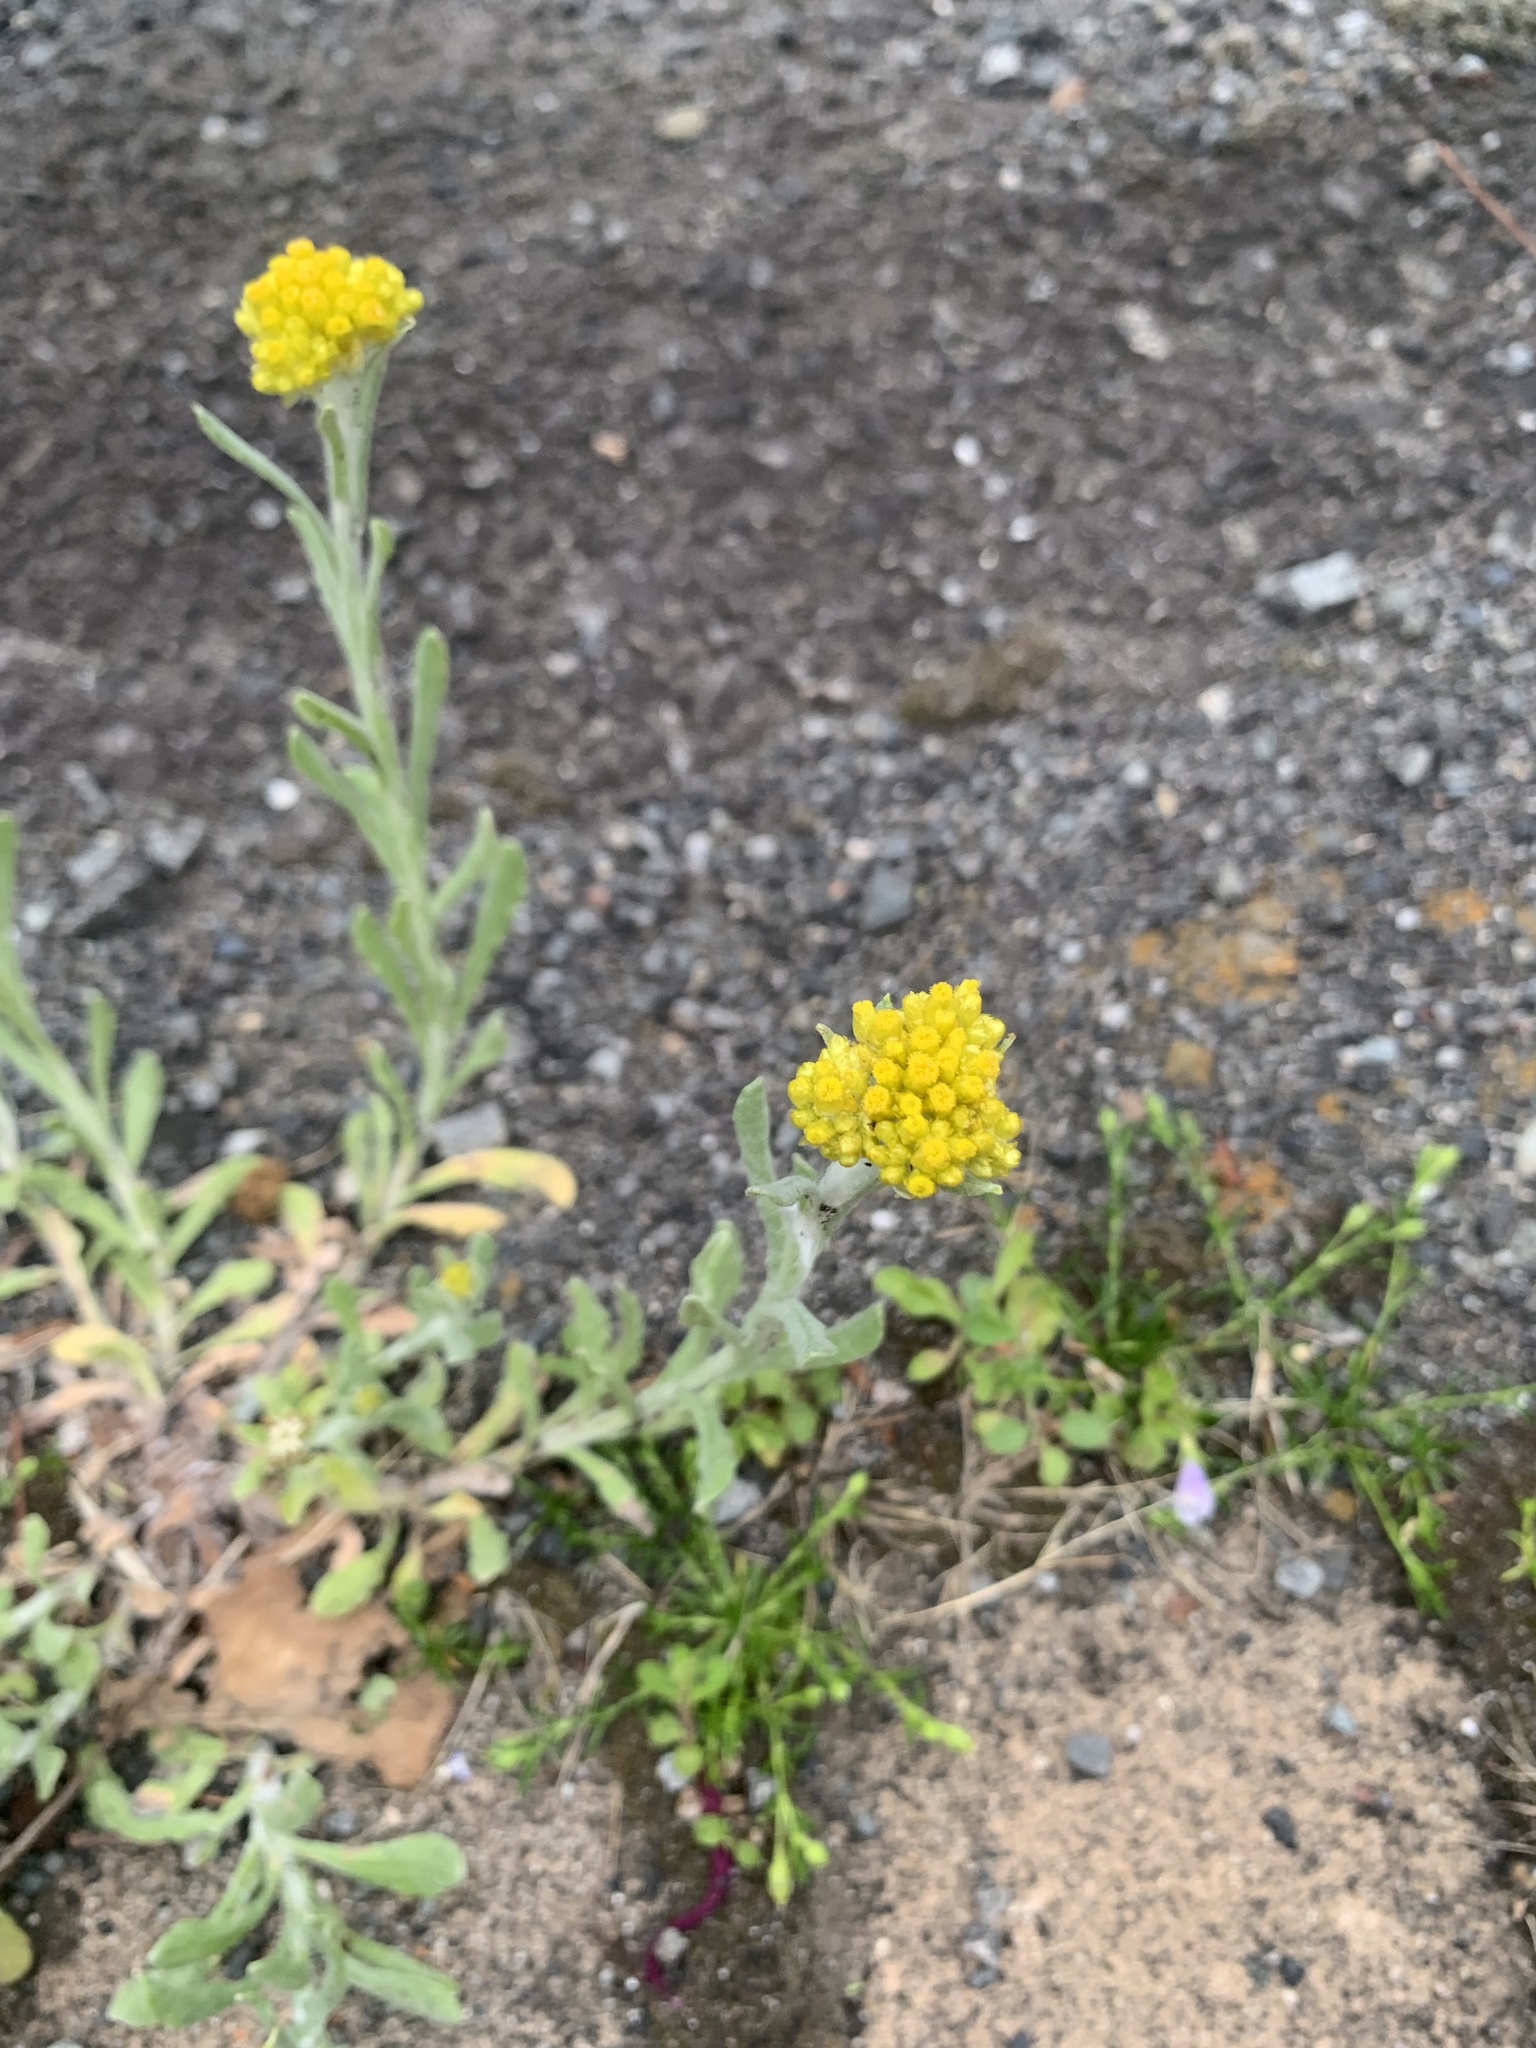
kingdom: Plantae
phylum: Tracheophyta
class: Magnoliopsida
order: Asterales
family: Asteraceae
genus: Pseudognaphalium
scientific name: Pseudognaphalium affine
